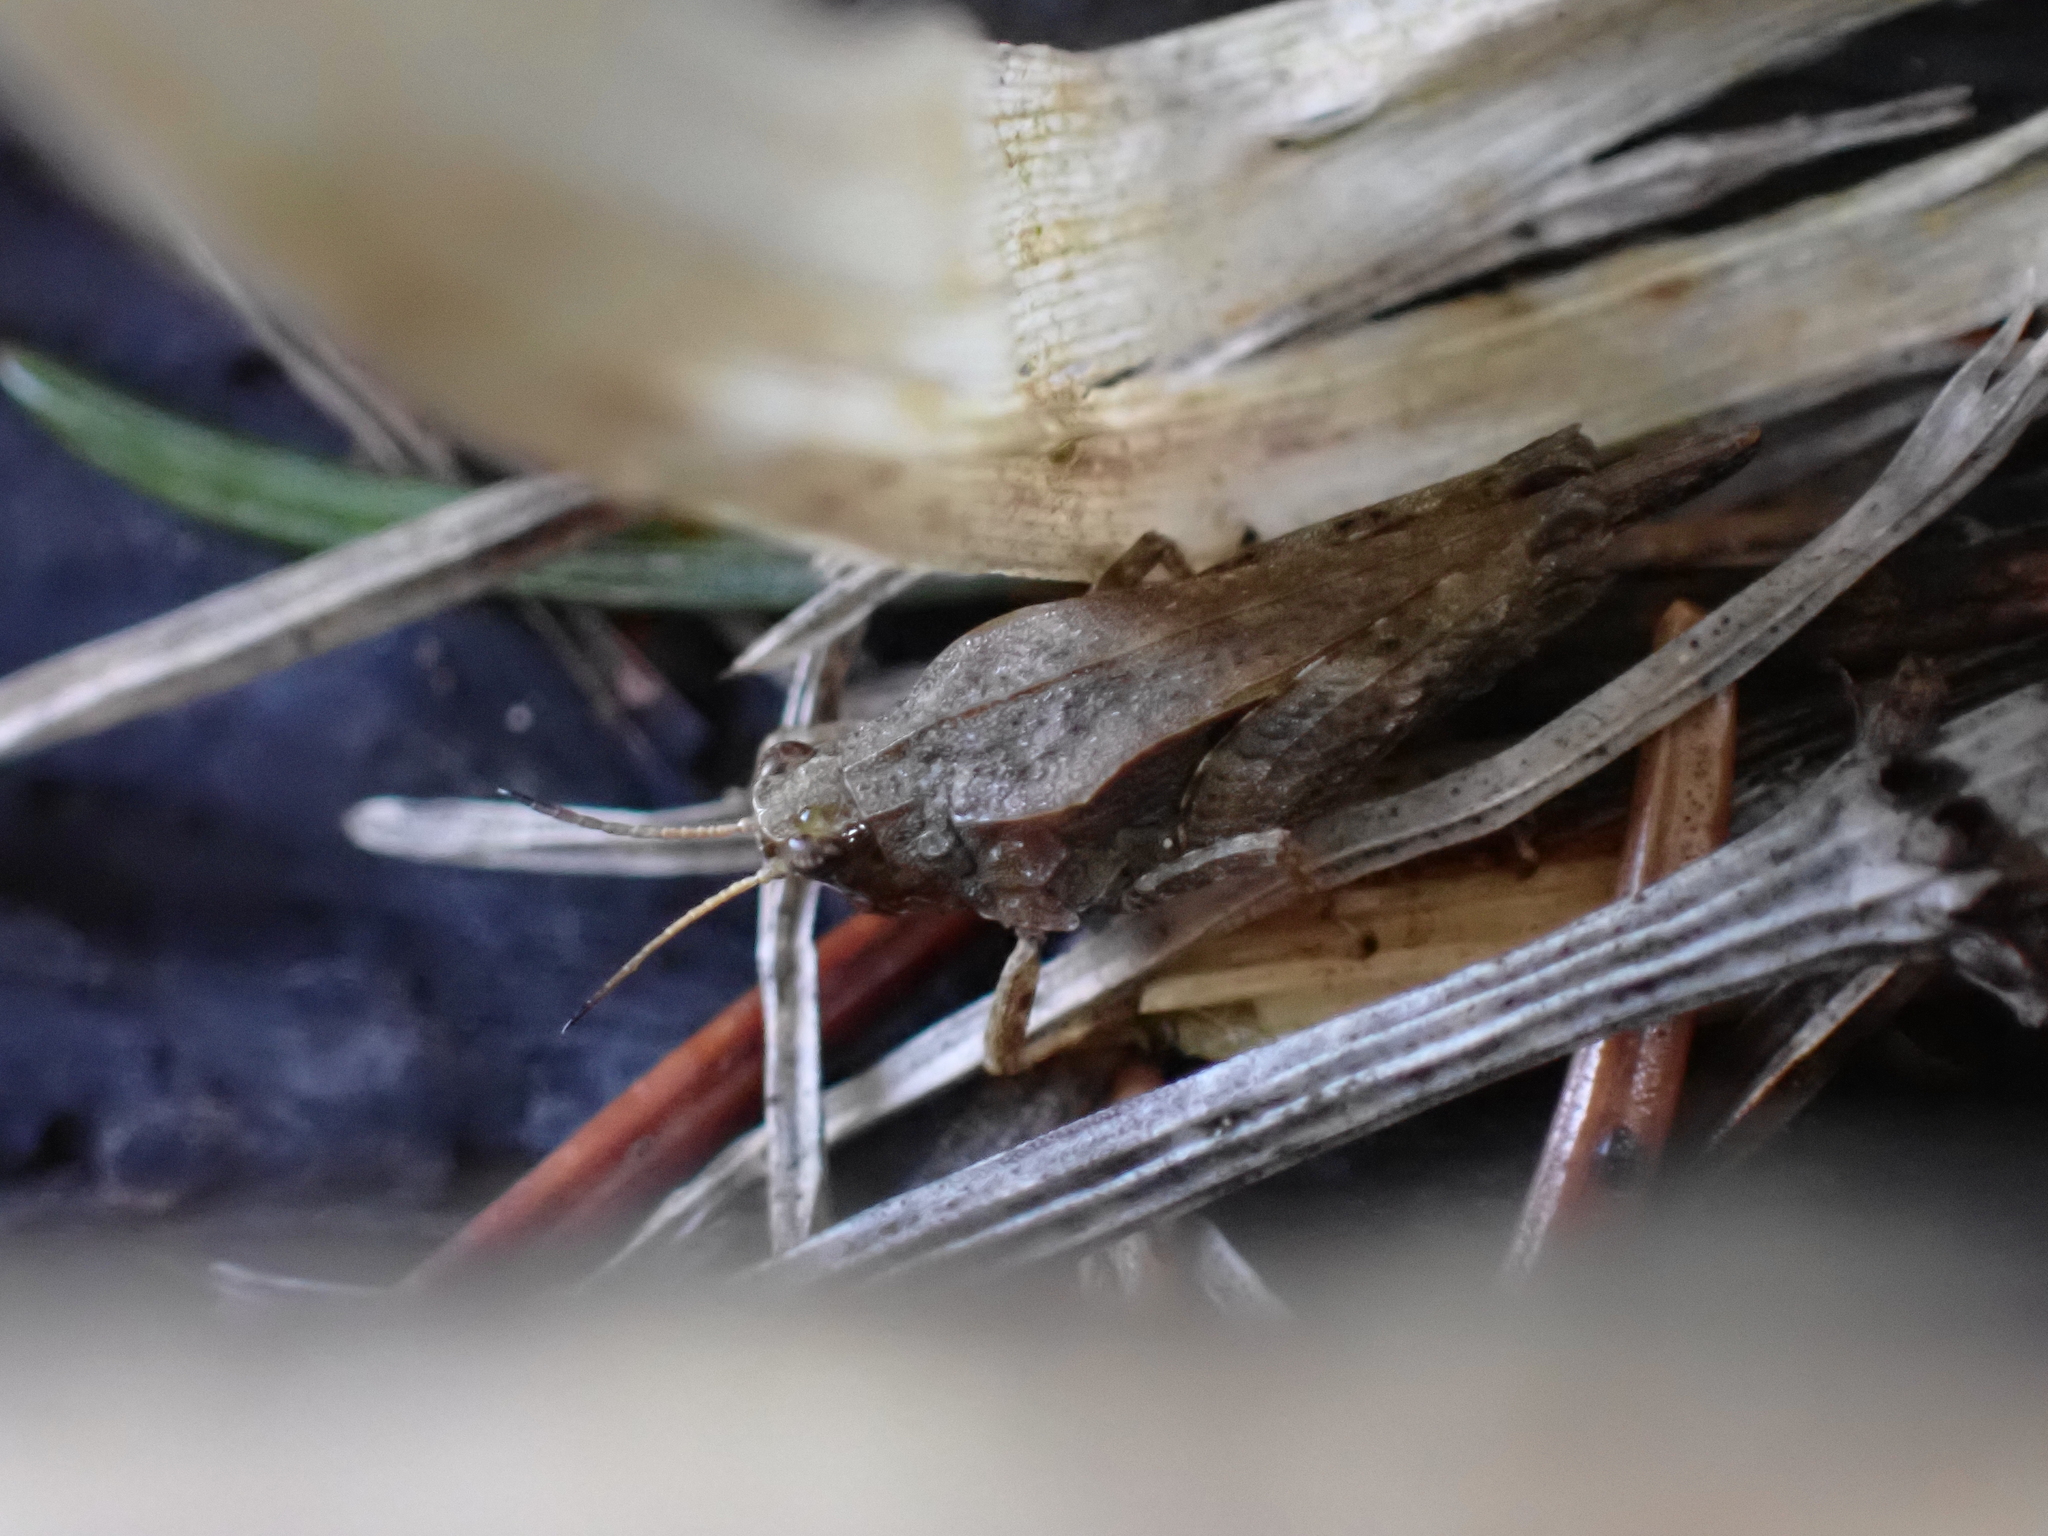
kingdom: Animalia
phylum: Arthropoda
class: Insecta
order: Orthoptera
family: Tetrigidae
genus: Tetrix
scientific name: Tetrix subulata
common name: Slender ground-hopper
